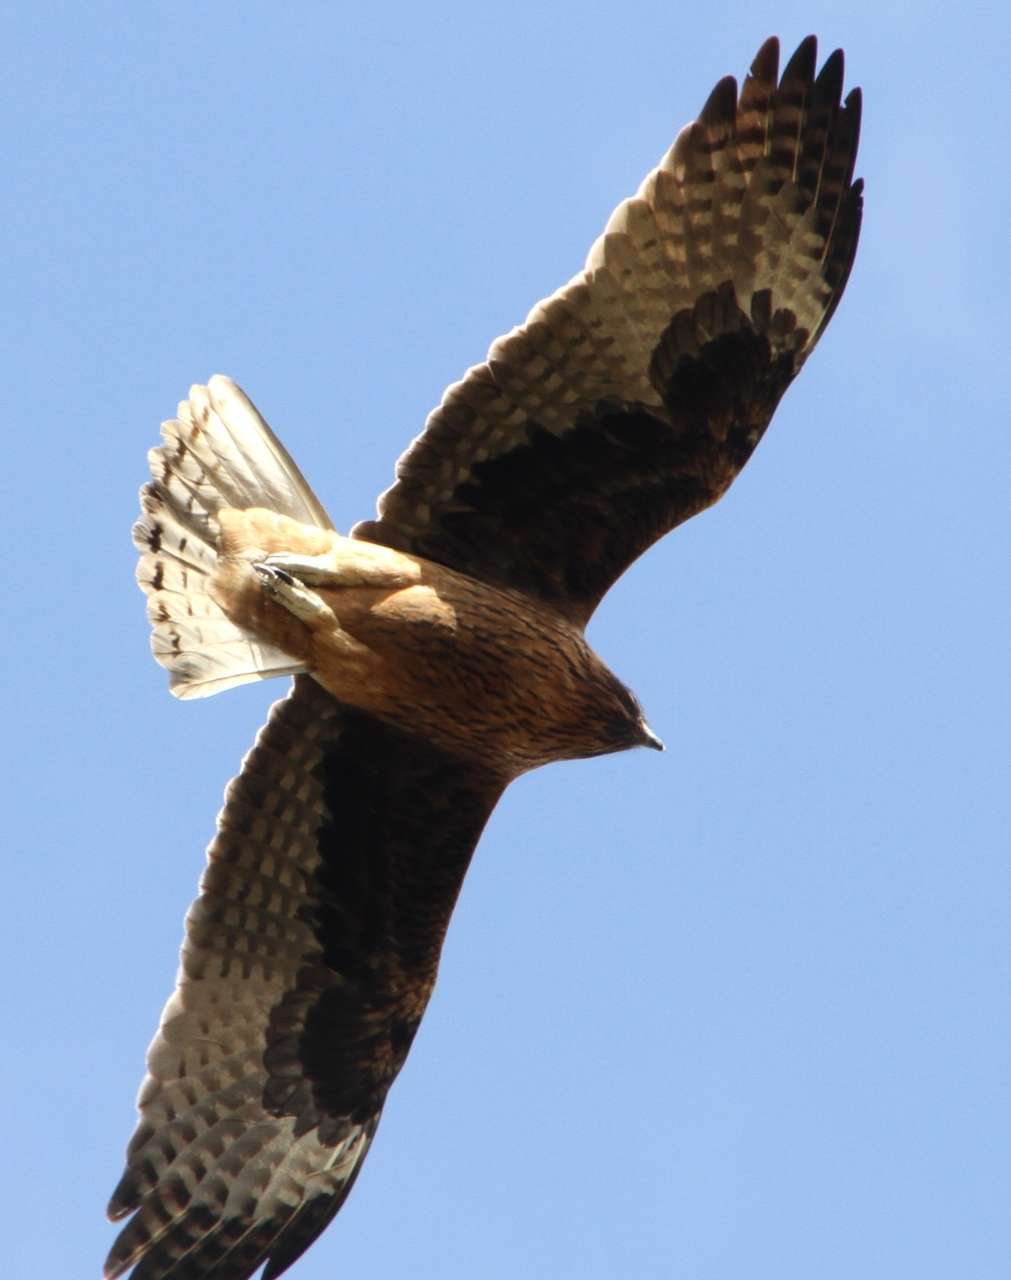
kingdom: Animalia
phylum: Chordata
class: Aves
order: Accipitriformes
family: Accipitridae
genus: Hieraaetus
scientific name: Hieraaetus morphnoides
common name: Little eagle
